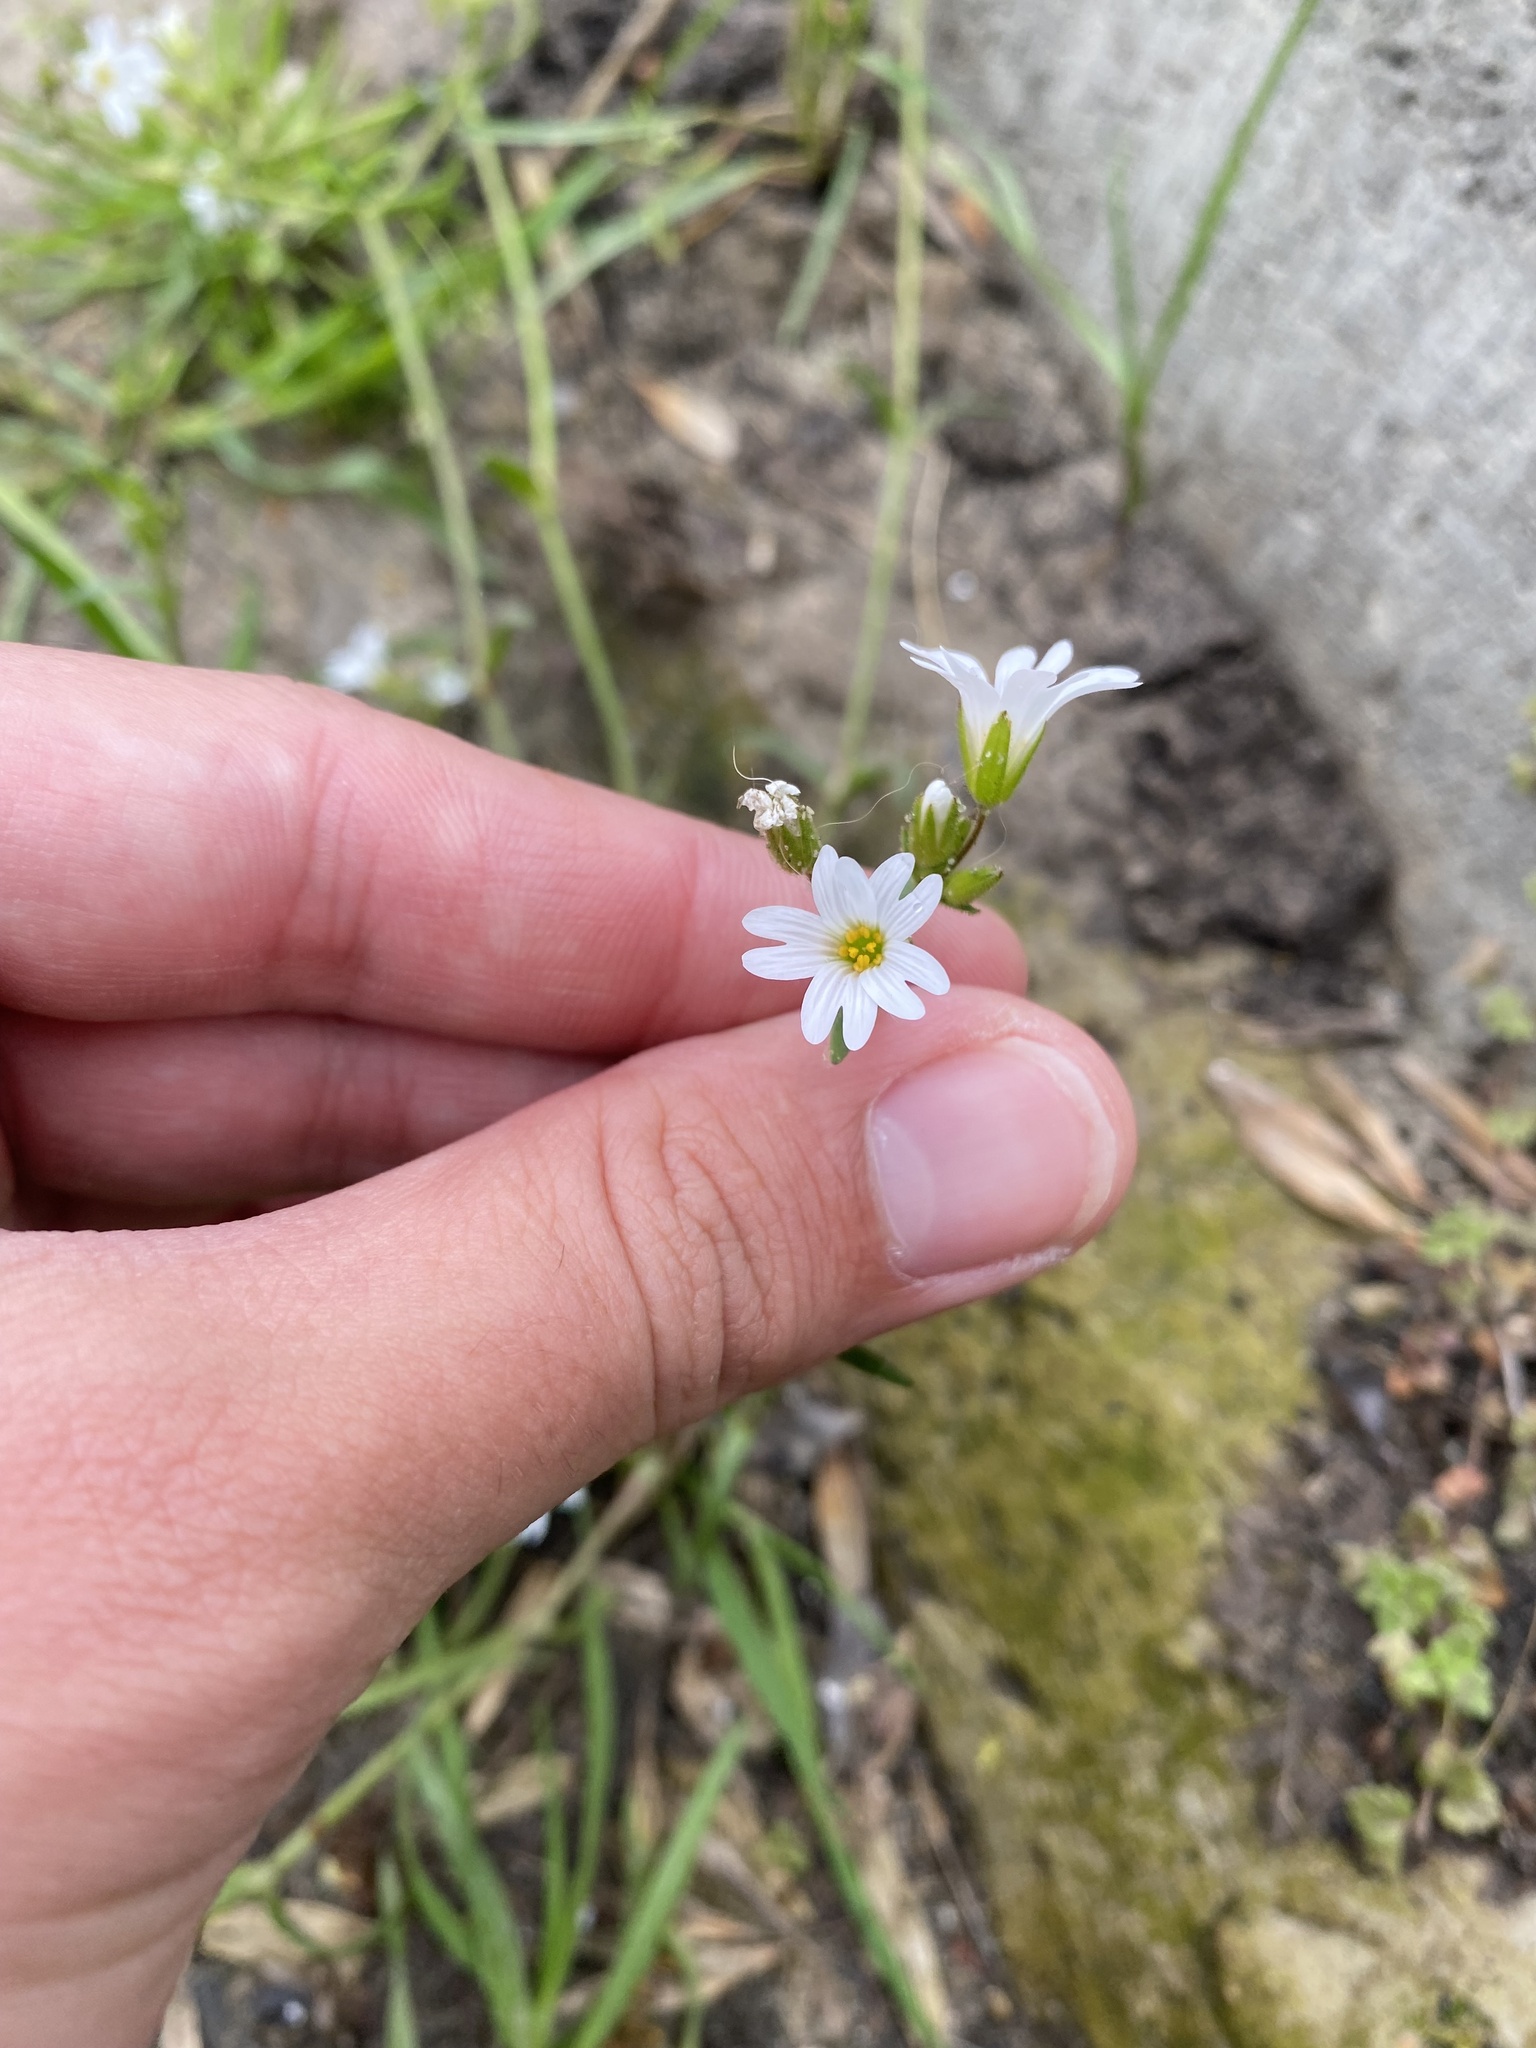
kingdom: Plantae
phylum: Tracheophyta
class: Magnoliopsida
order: Caryophyllales
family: Caryophyllaceae
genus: Dichodon
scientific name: Dichodon viscidum
